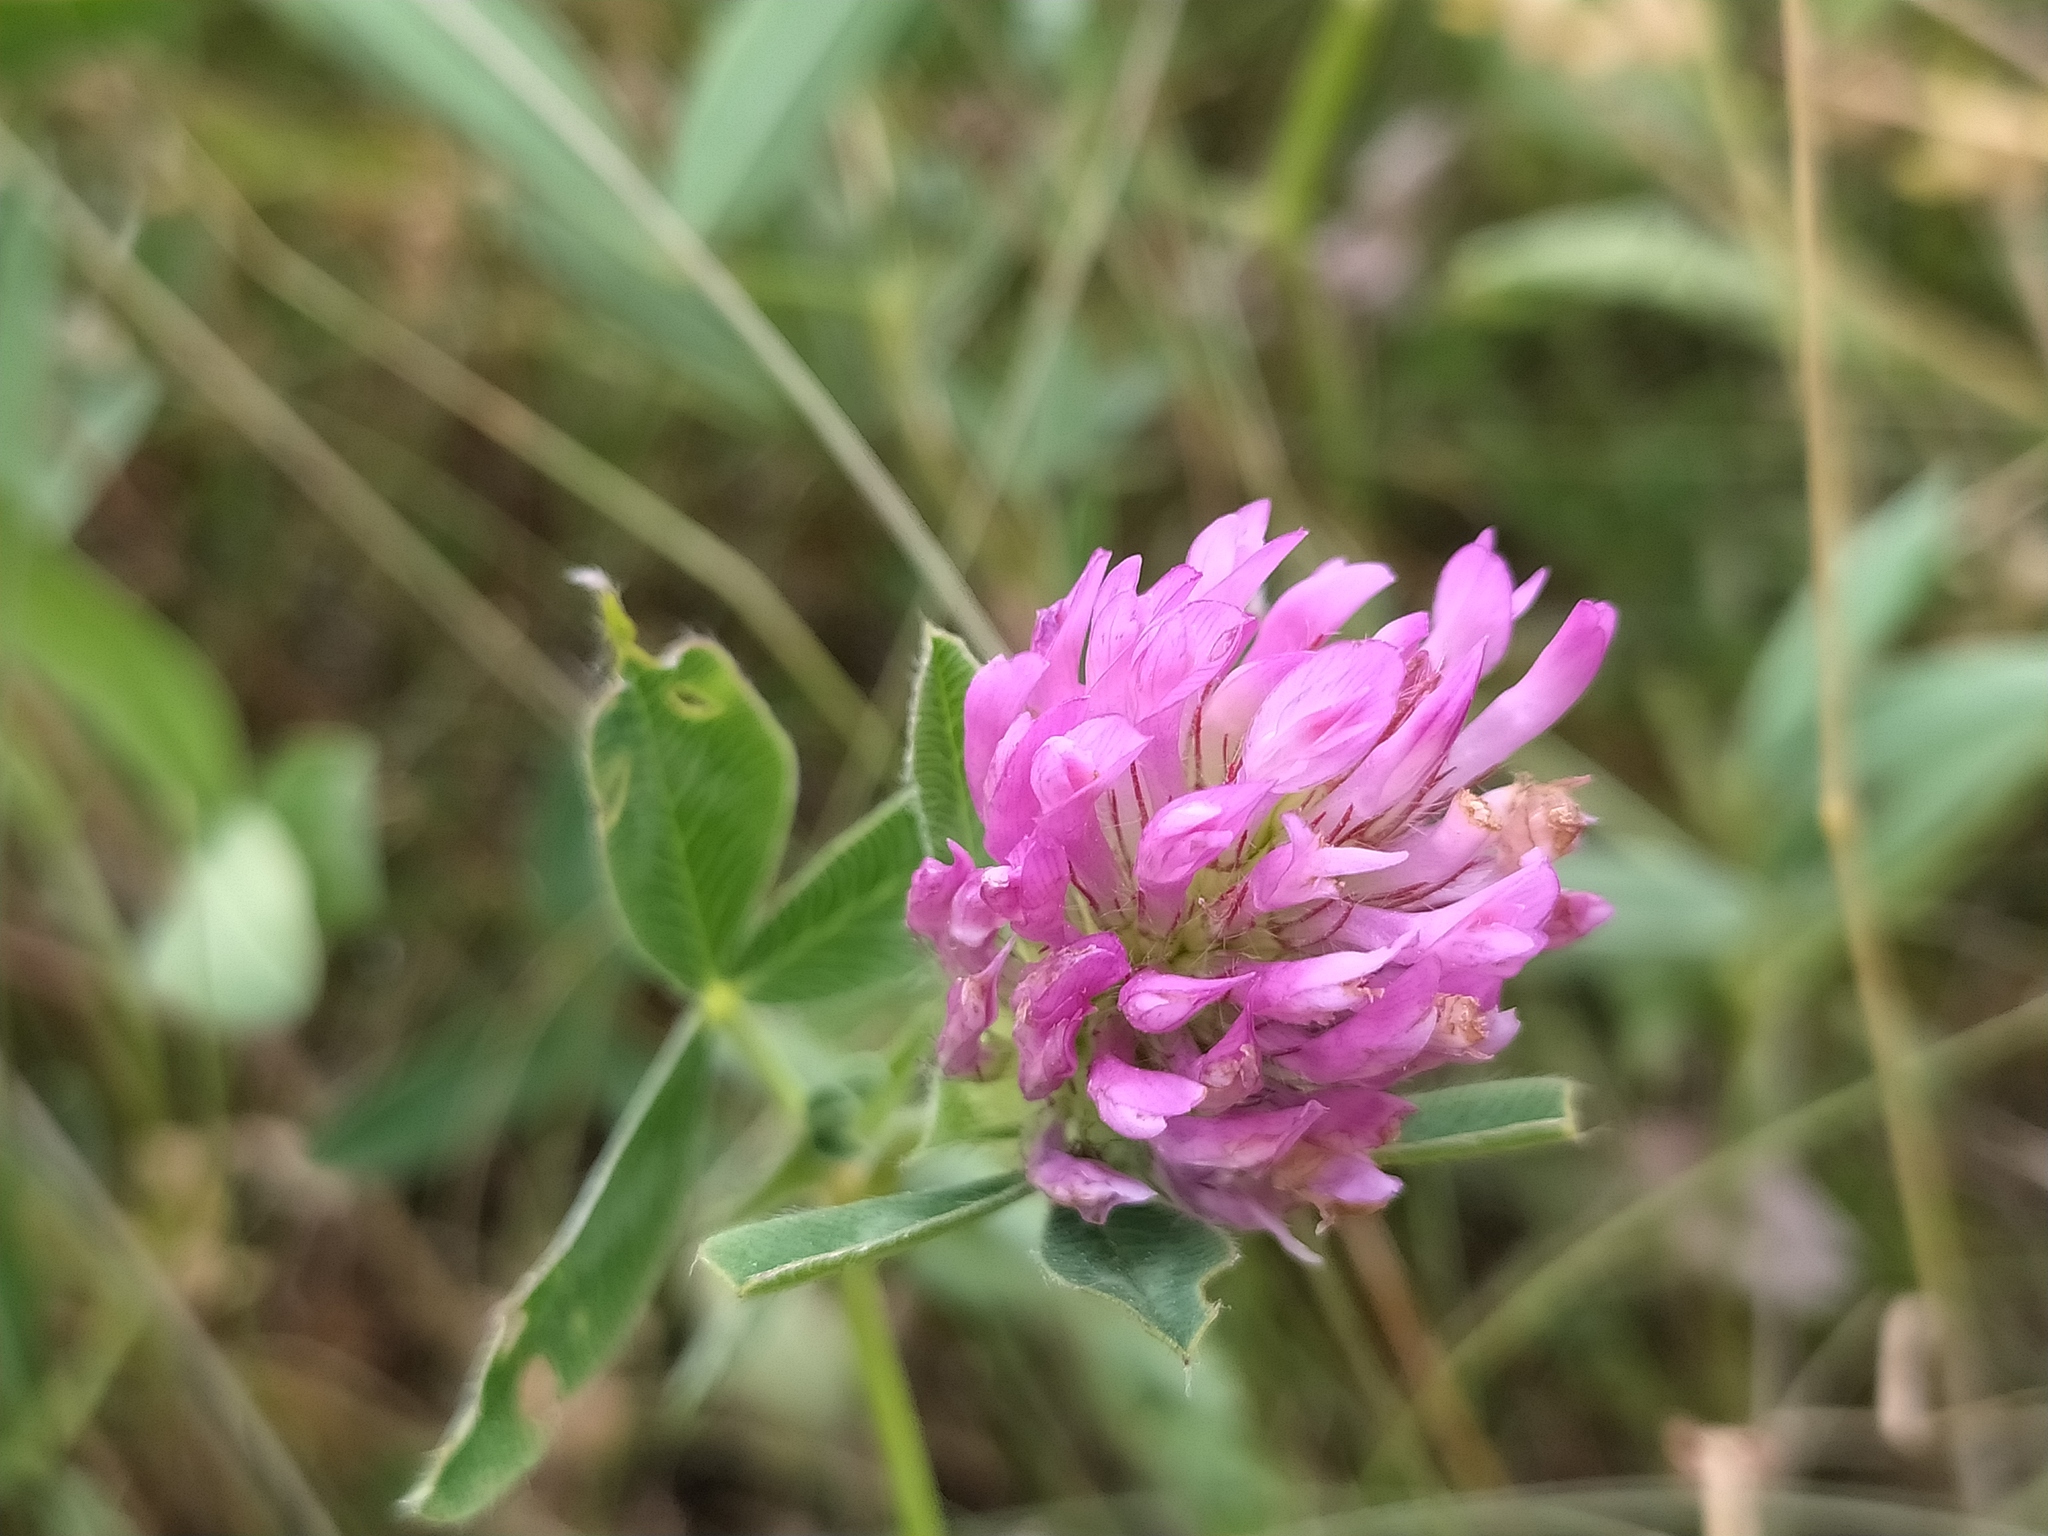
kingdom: Plantae
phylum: Tracheophyta
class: Magnoliopsida
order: Fabales
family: Fabaceae
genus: Trifolium
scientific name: Trifolium medium
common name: Zigzag clover
